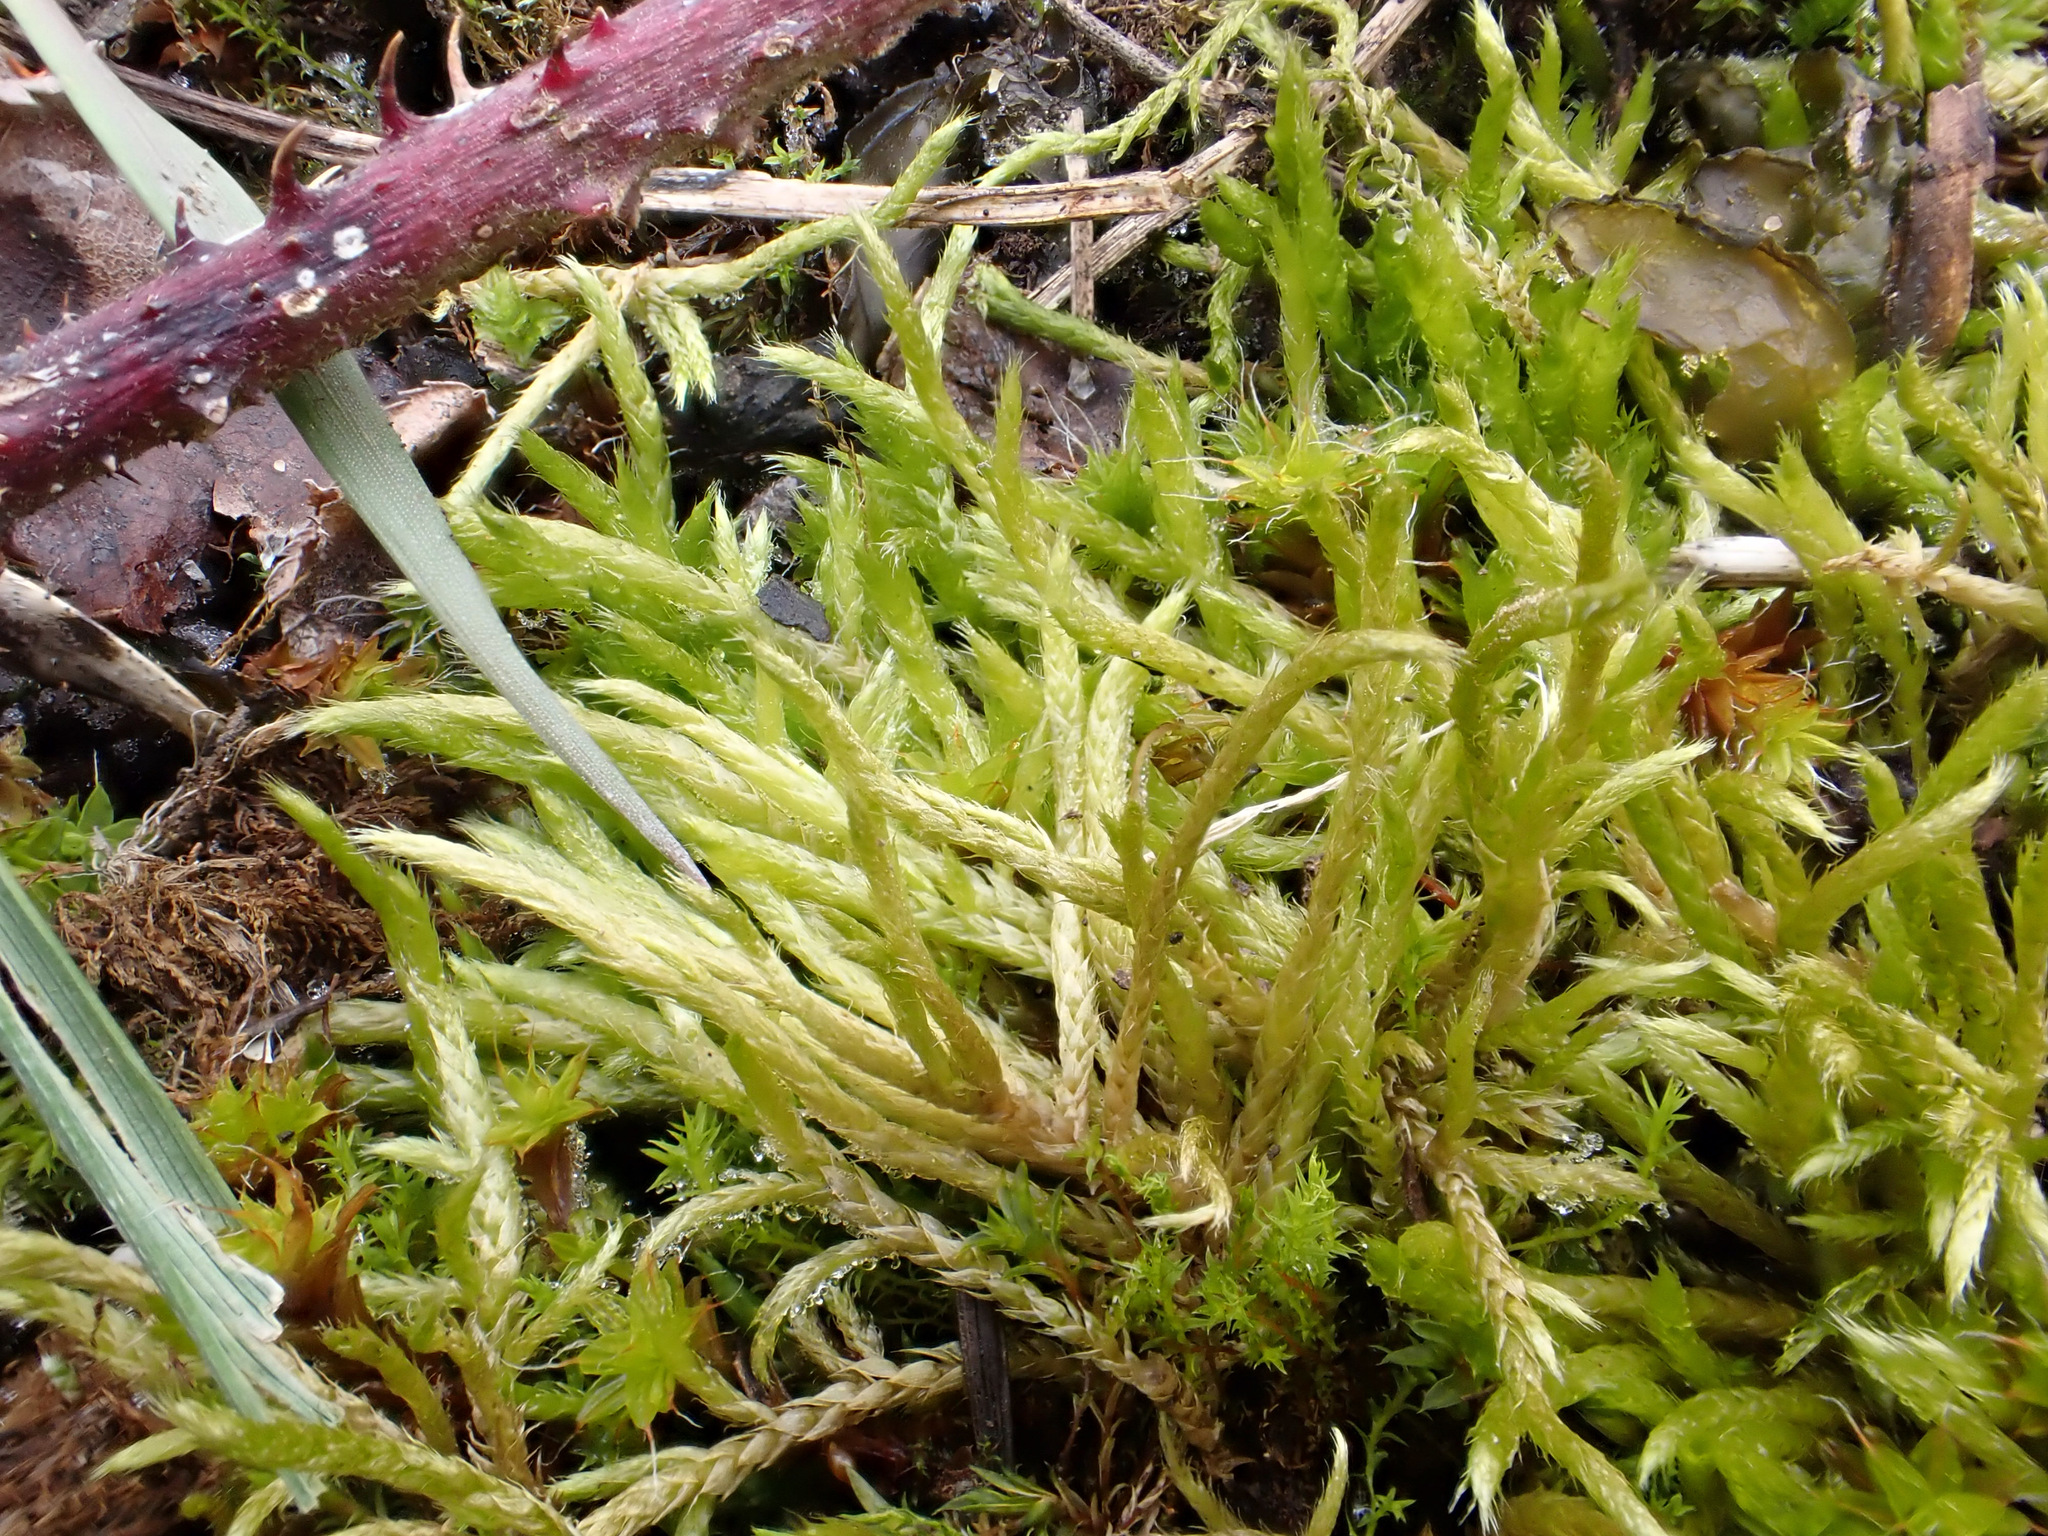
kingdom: Plantae
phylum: Bryophyta
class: Bryopsida
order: Hypnales
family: Brachytheciaceae
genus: Brachythecium
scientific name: Brachythecium albicans
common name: Whitish ragged moss
